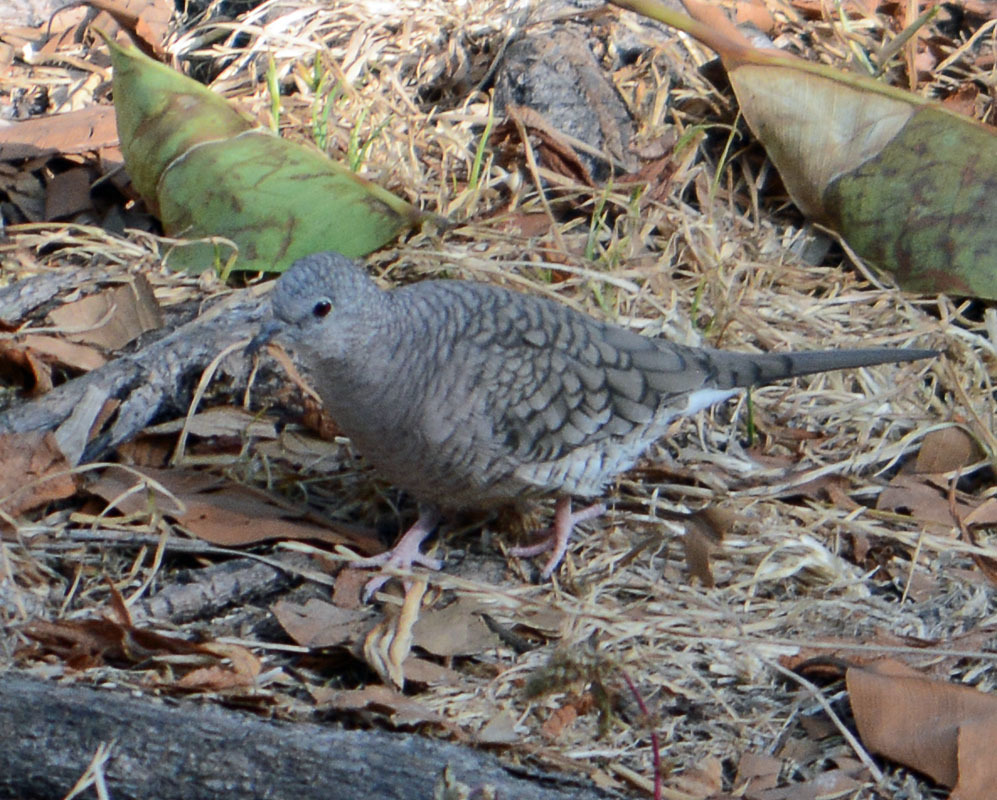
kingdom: Animalia
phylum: Chordata
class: Aves
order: Columbiformes
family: Columbidae
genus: Columbina
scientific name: Columbina inca
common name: Inca dove
